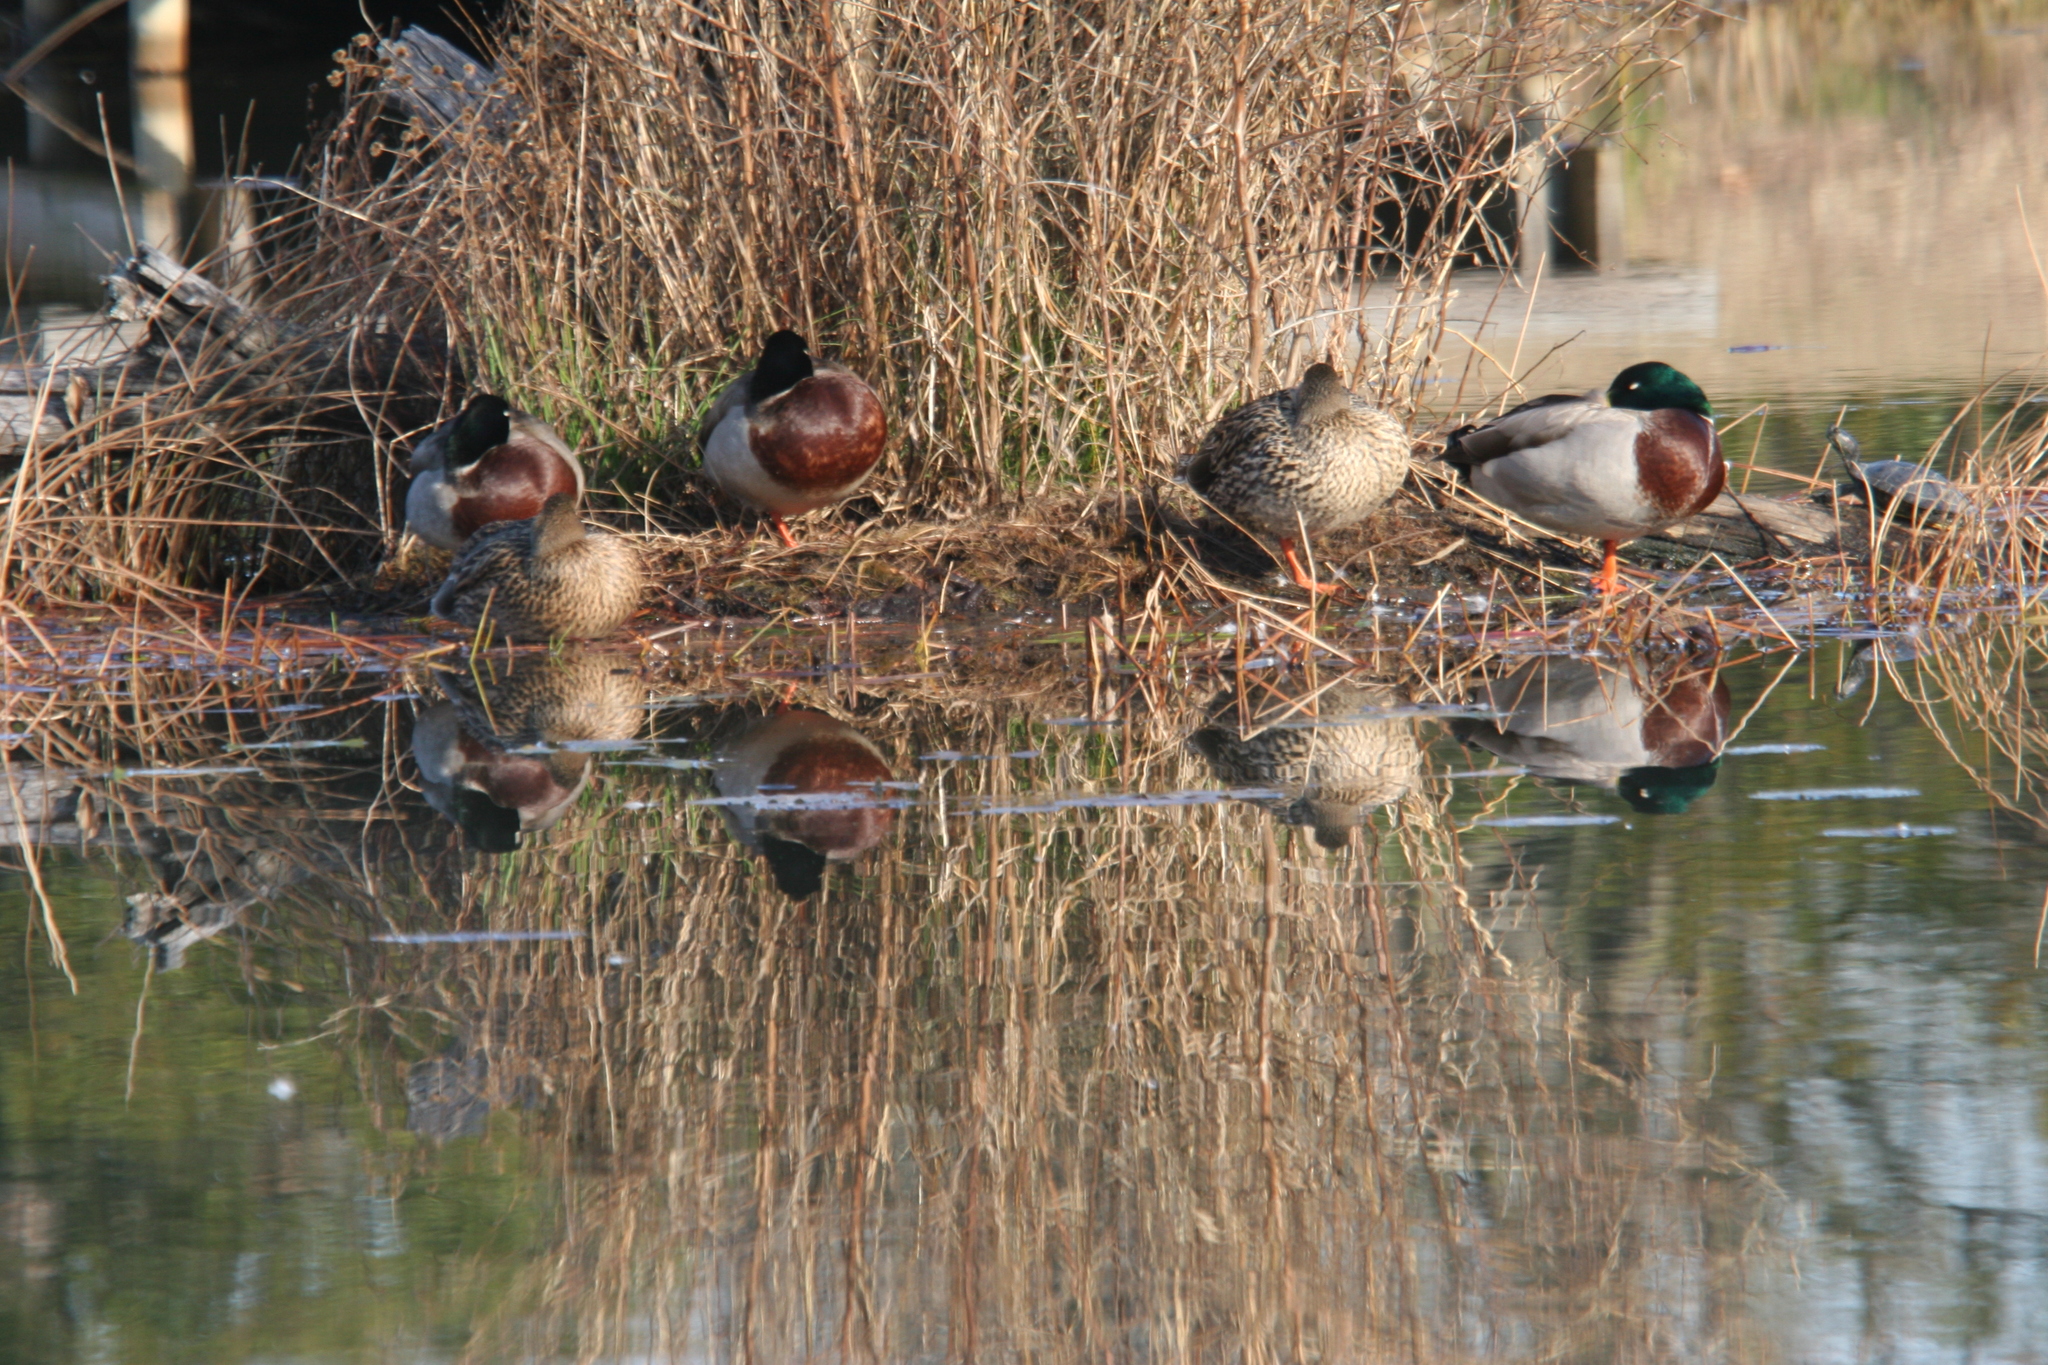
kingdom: Animalia
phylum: Chordata
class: Aves
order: Anseriformes
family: Anatidae
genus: Anas
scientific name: Anas platyrhynchos
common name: Mallard
